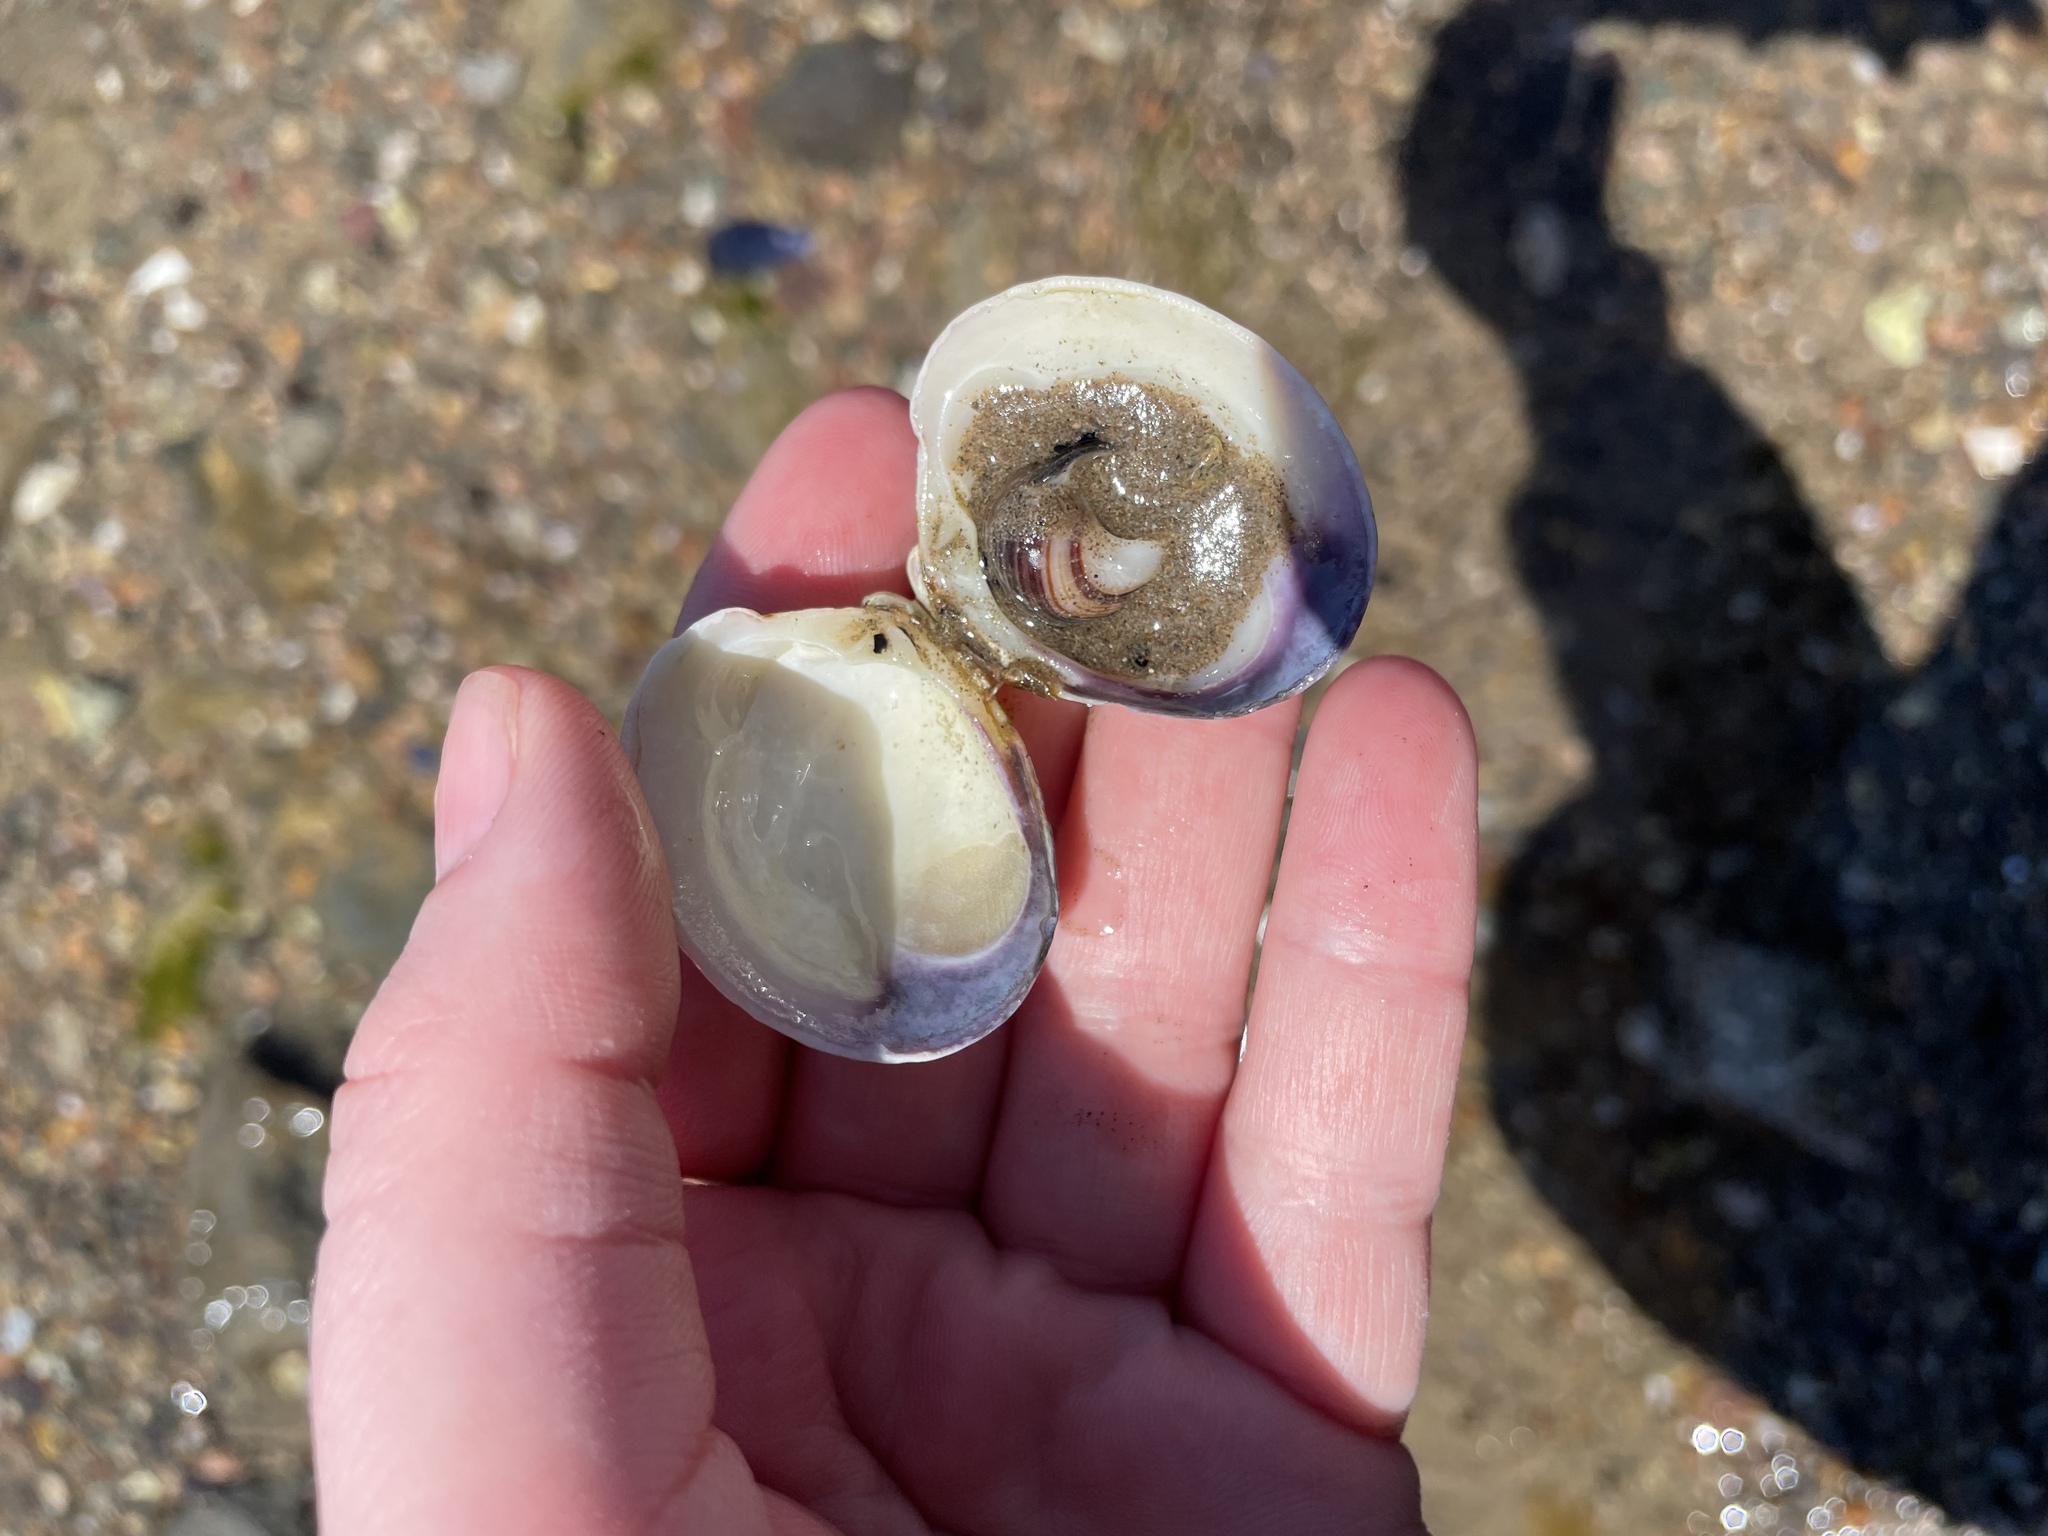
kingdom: Animalia
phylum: Mollusca
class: Bivalvia
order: Venerida
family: Veneridae
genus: Mercenaria
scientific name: Mercenaria mercenaria
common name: American hard-shelled clam
